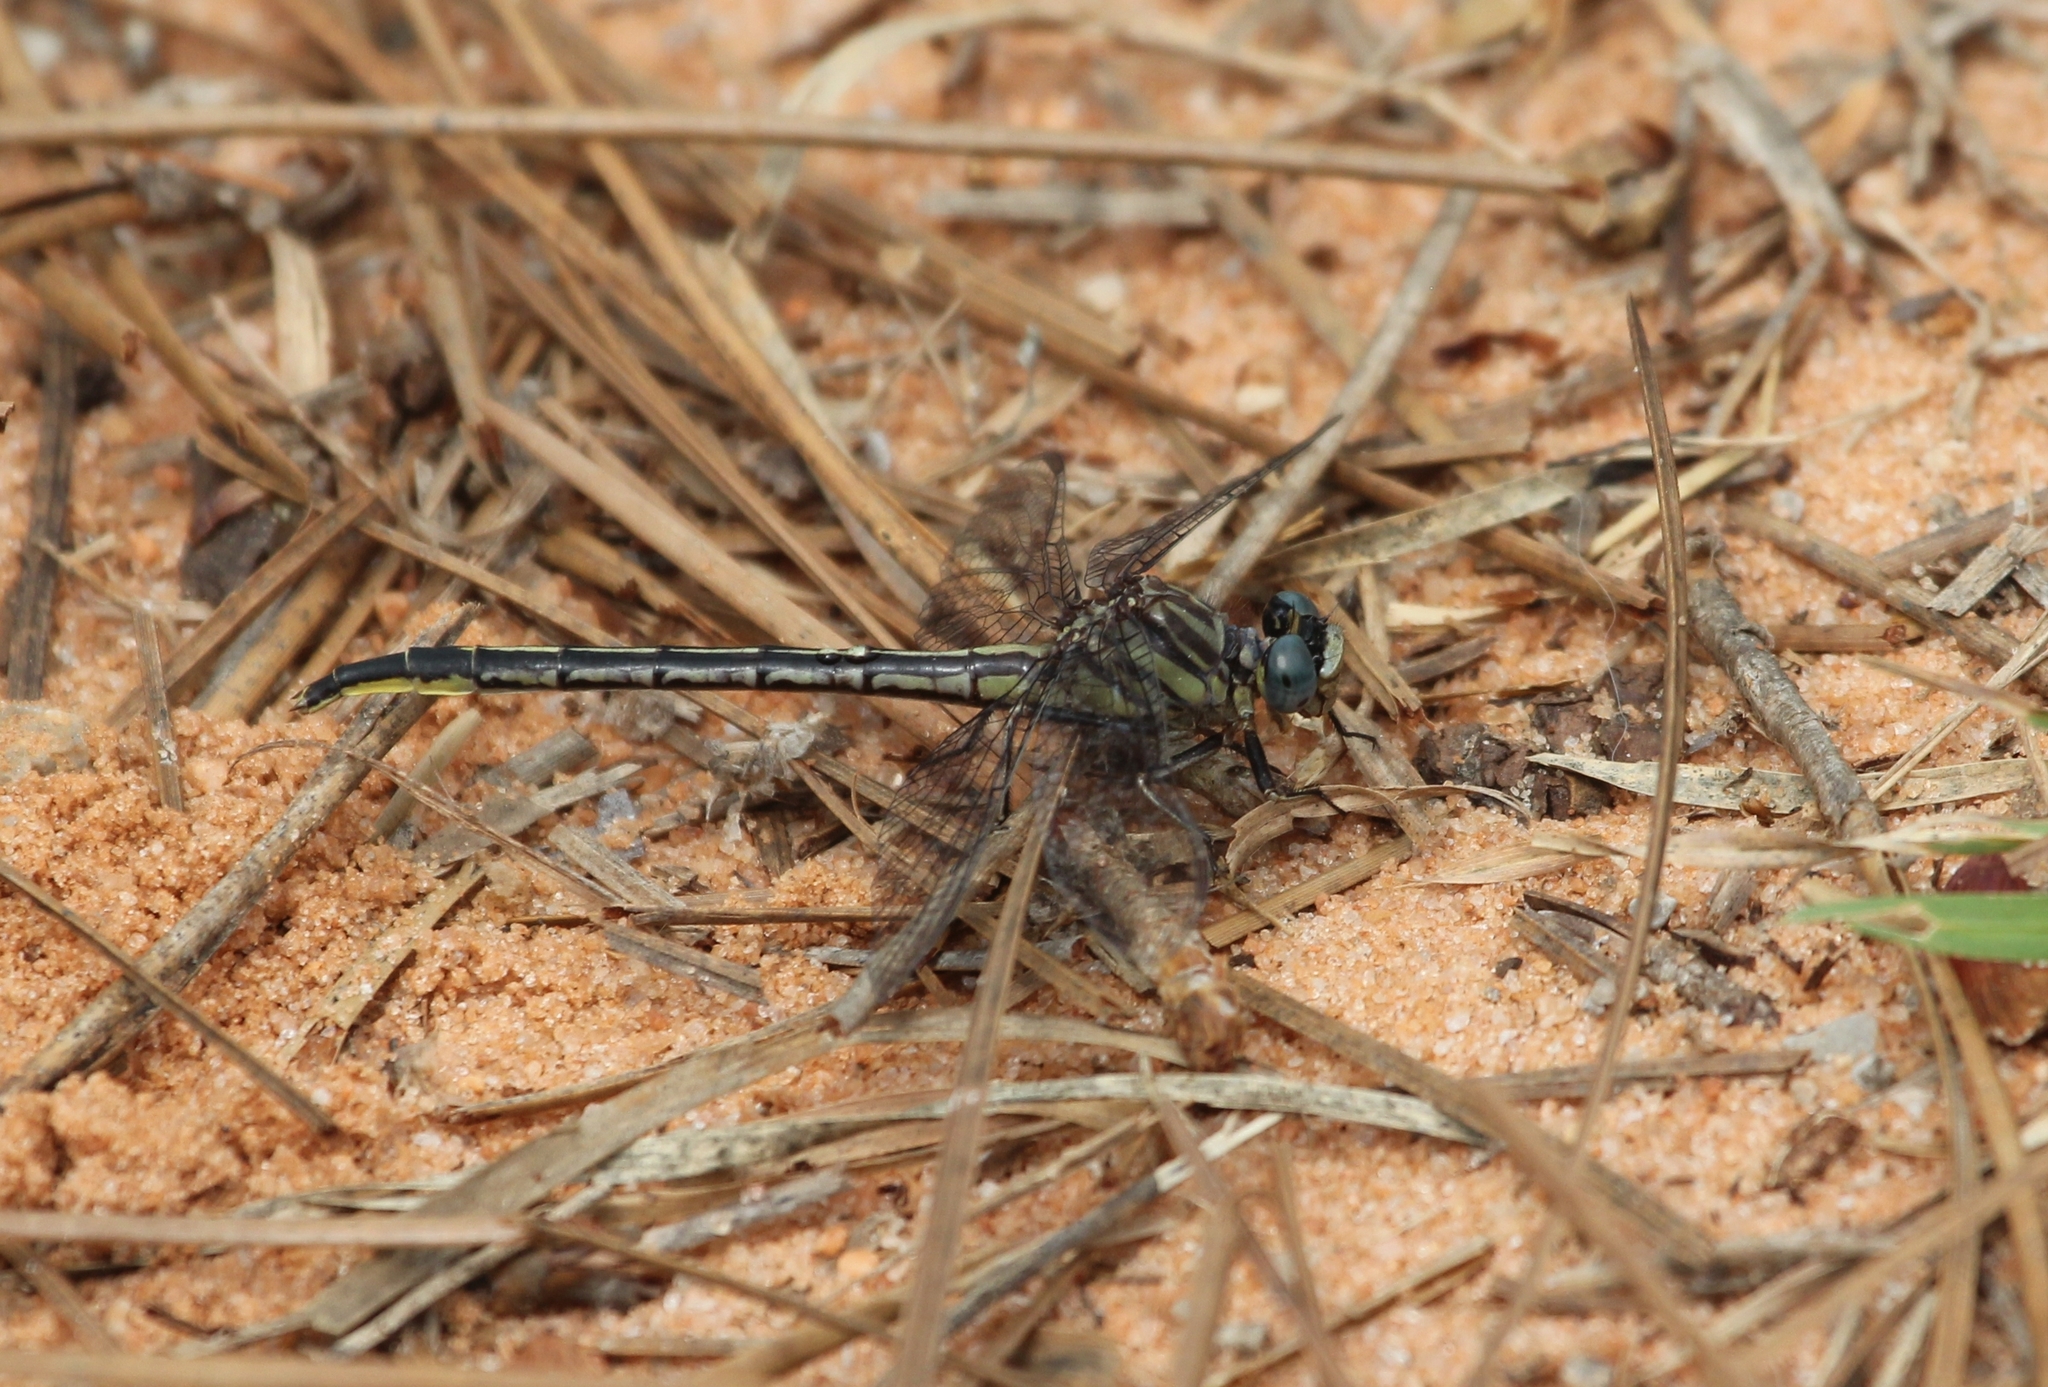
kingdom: Animalia
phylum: Arthropoda
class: Insecta
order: Odonata
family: Gomphidae
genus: Phanogomphus
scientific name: Phanogomphus westfalli
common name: Westfall’s clubtail
